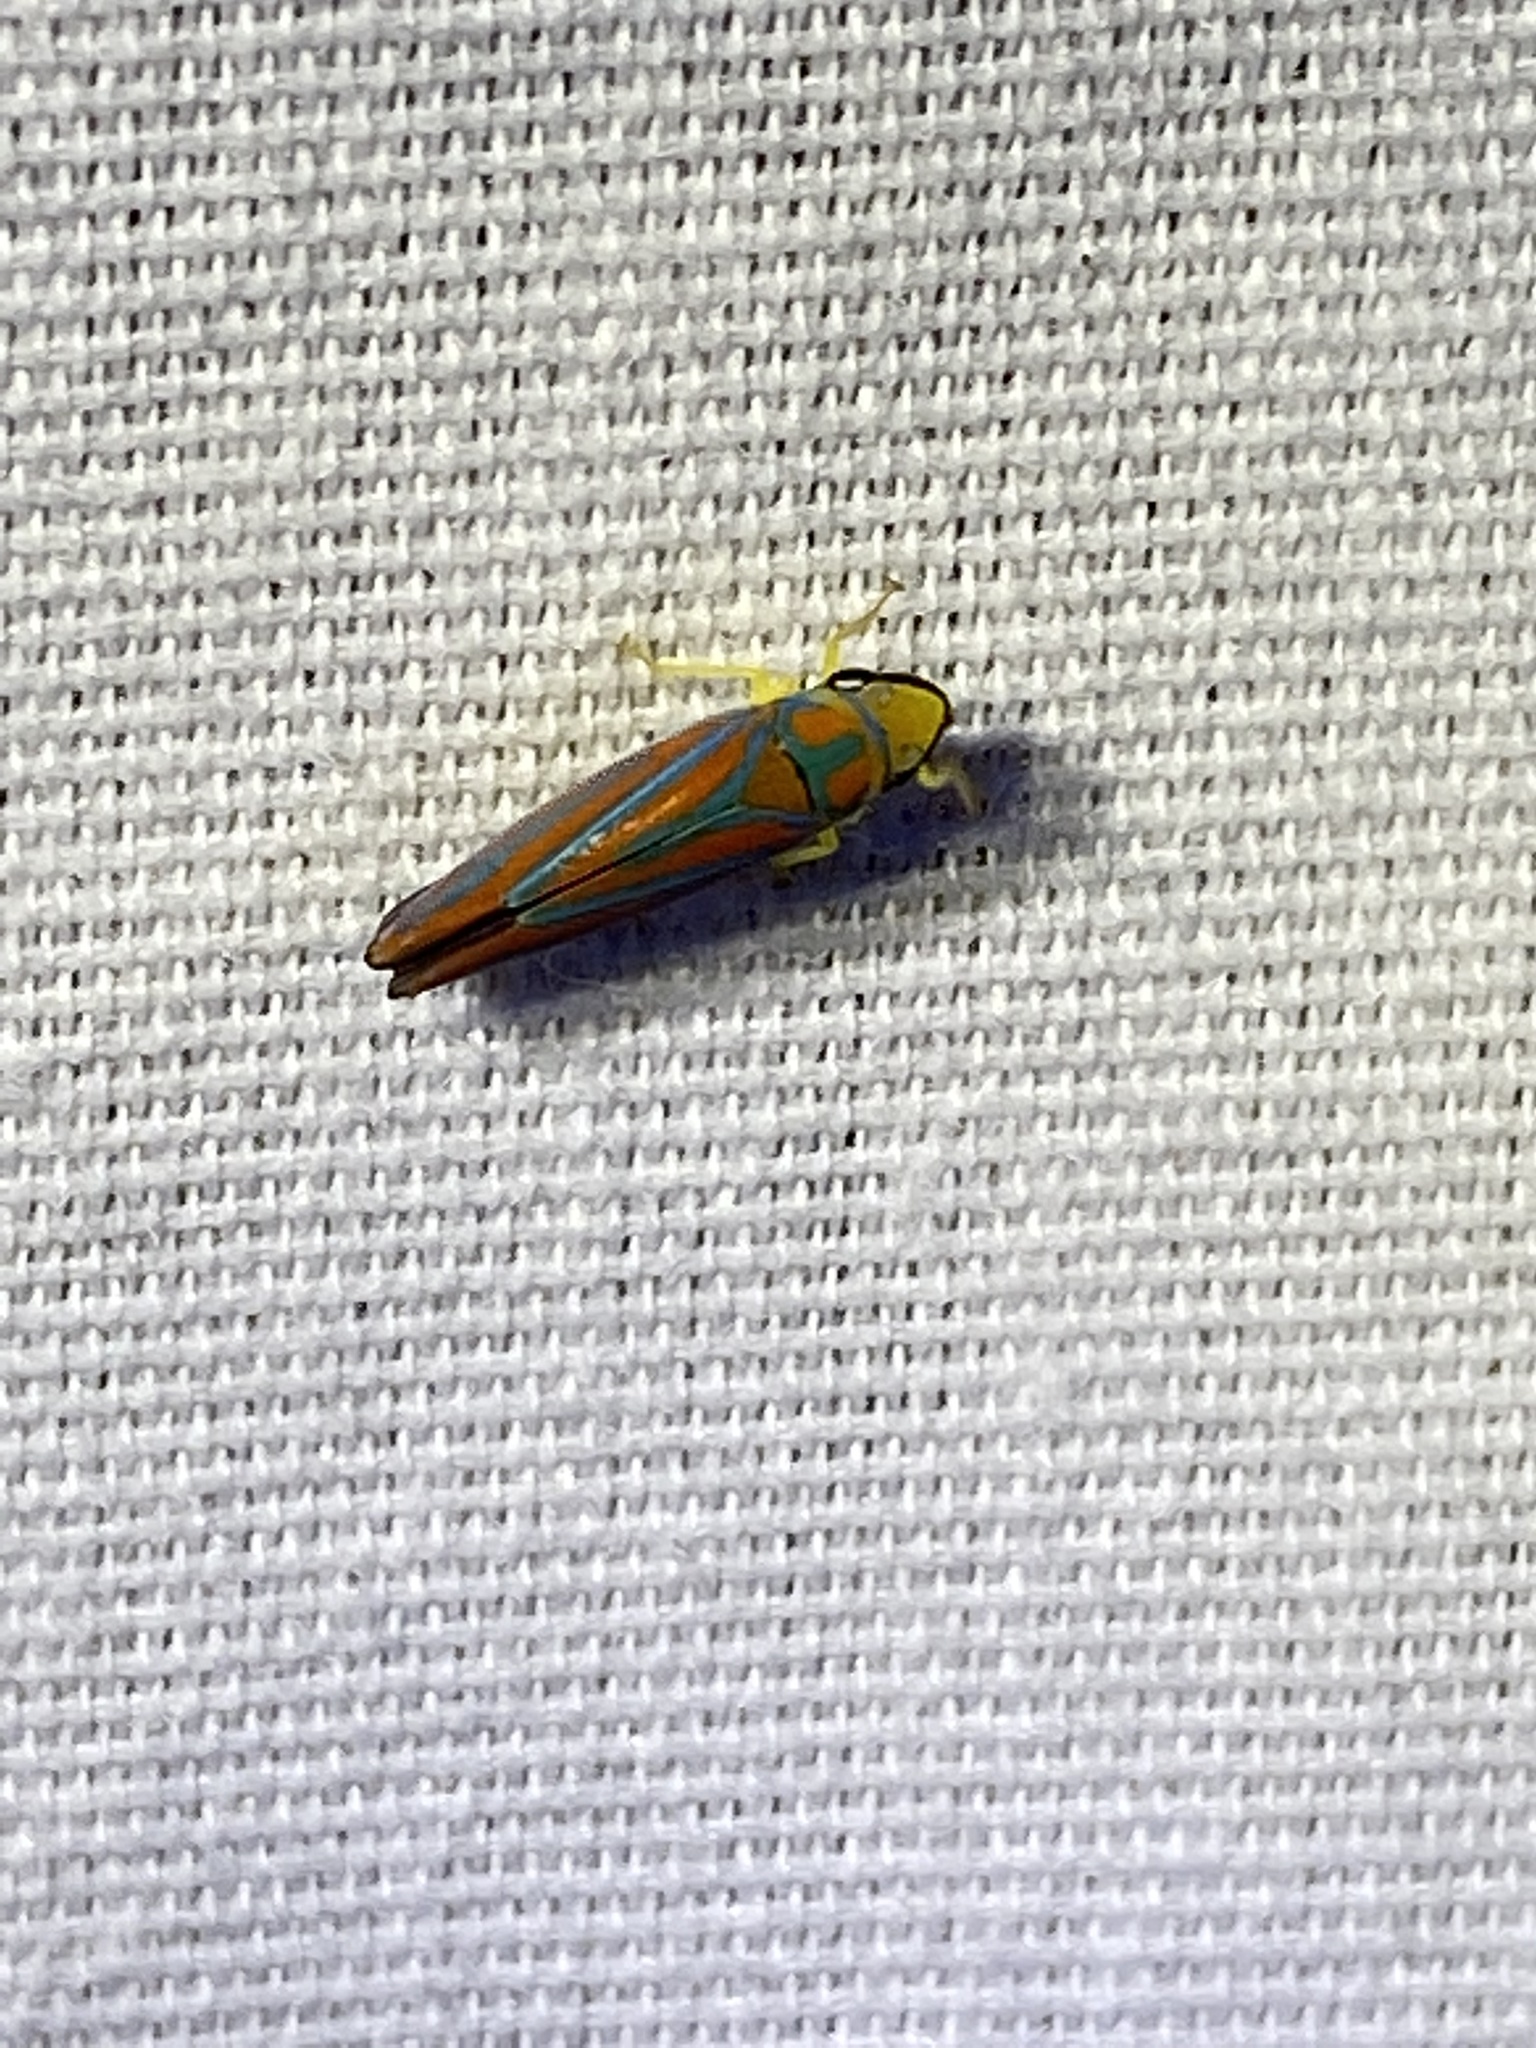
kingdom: Animalia
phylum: Arthropoda
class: Insecta
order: Hemiptera
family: Cicadellidae
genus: Graphocephala
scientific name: Graphocephala coccinea
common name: Candy-striped leafhopper
